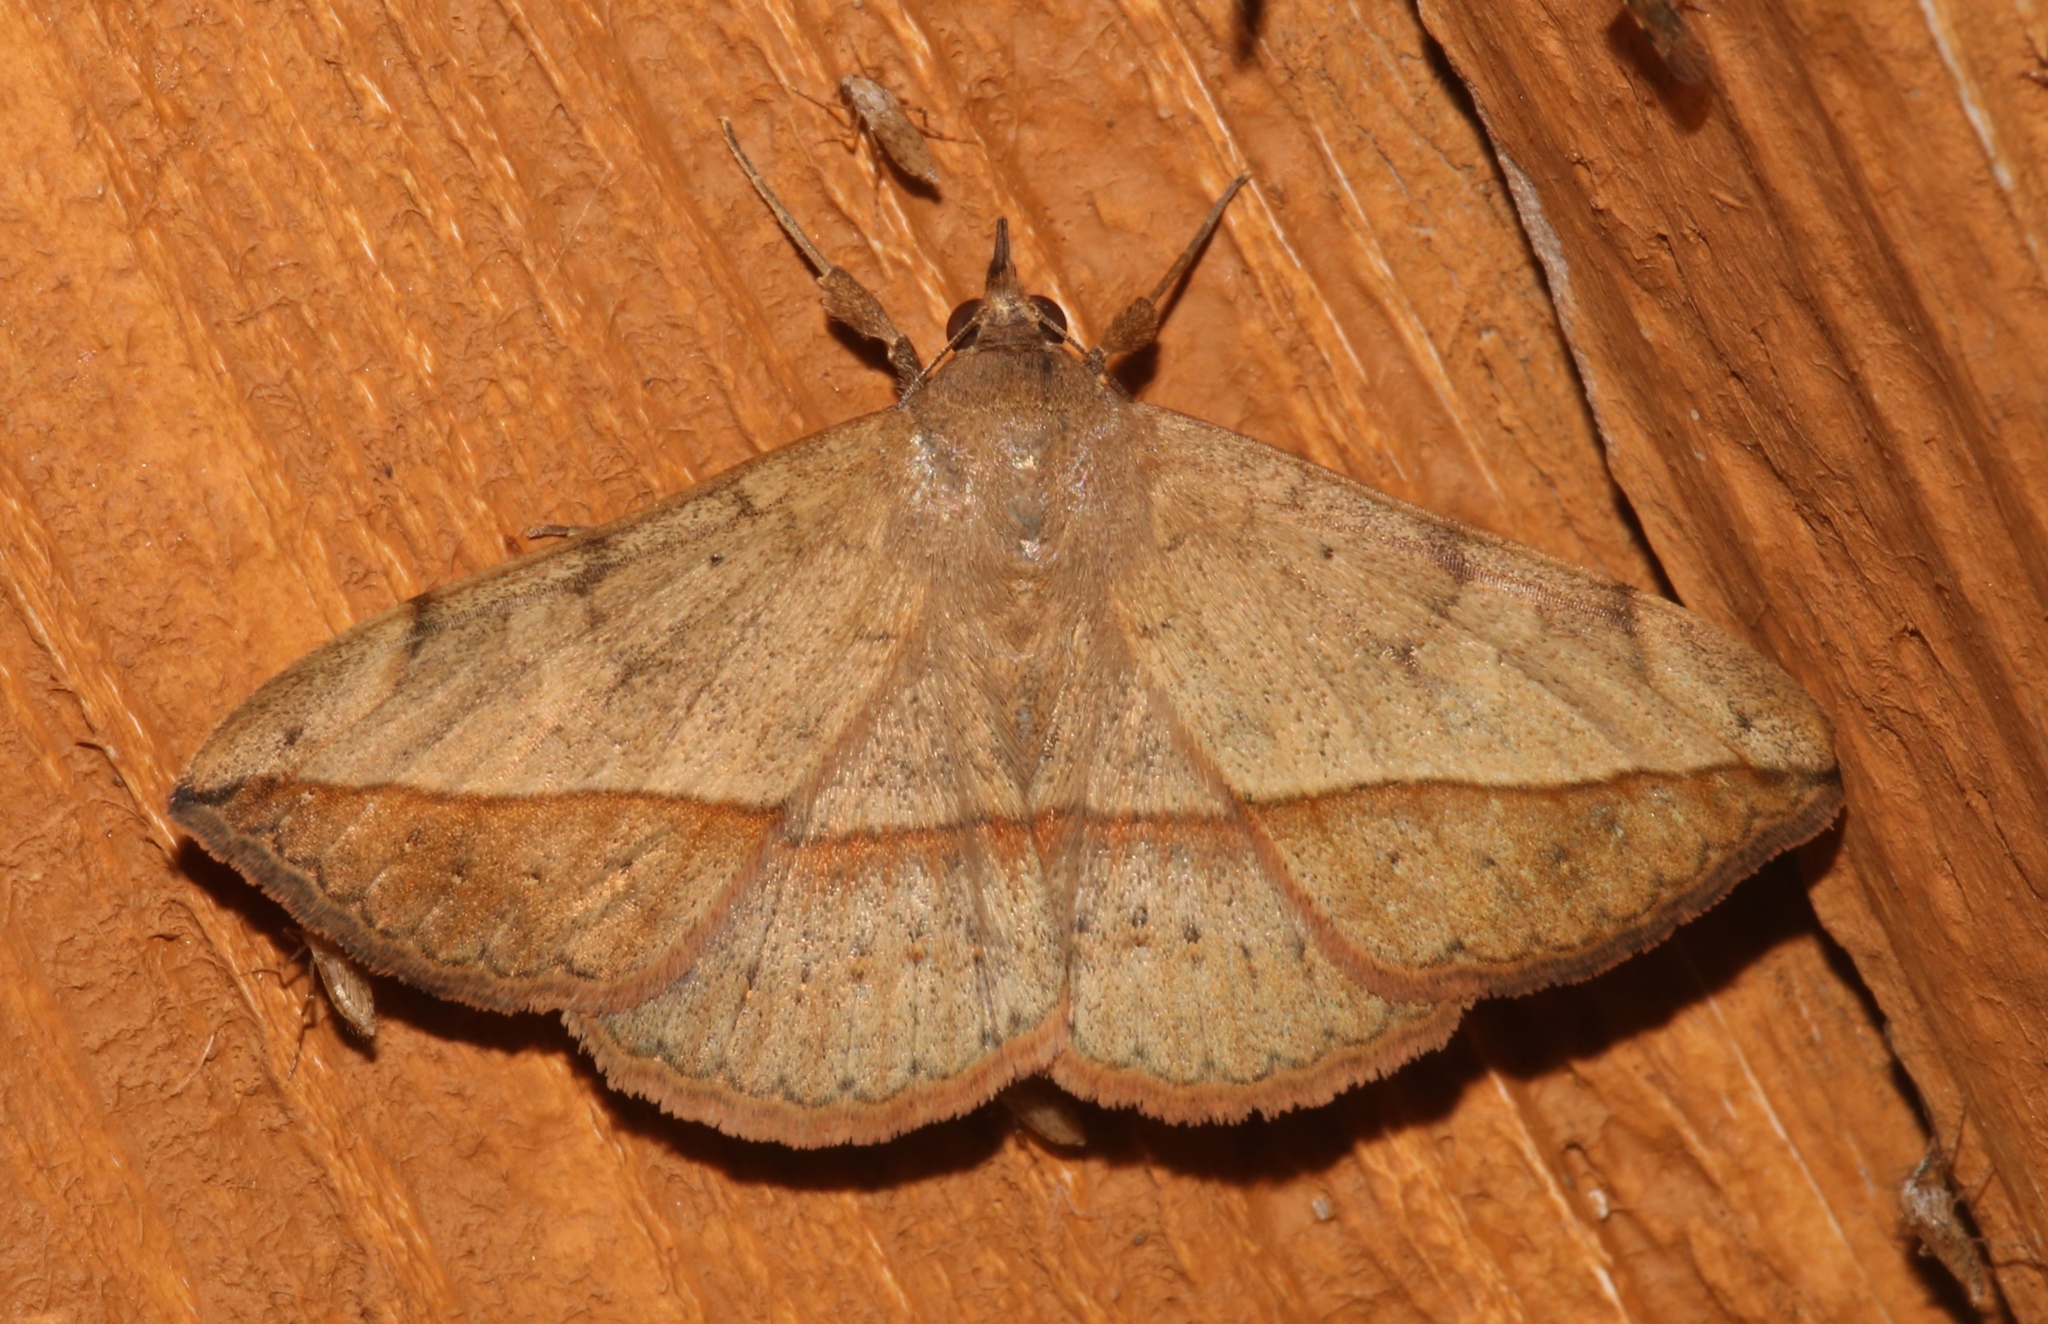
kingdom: Animalia
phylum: Arthropoda
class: Insecta
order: Lepidoptera
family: Erebidae
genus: Anticarsia
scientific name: Anticarsia gemmatalis
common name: Cutworm moth
